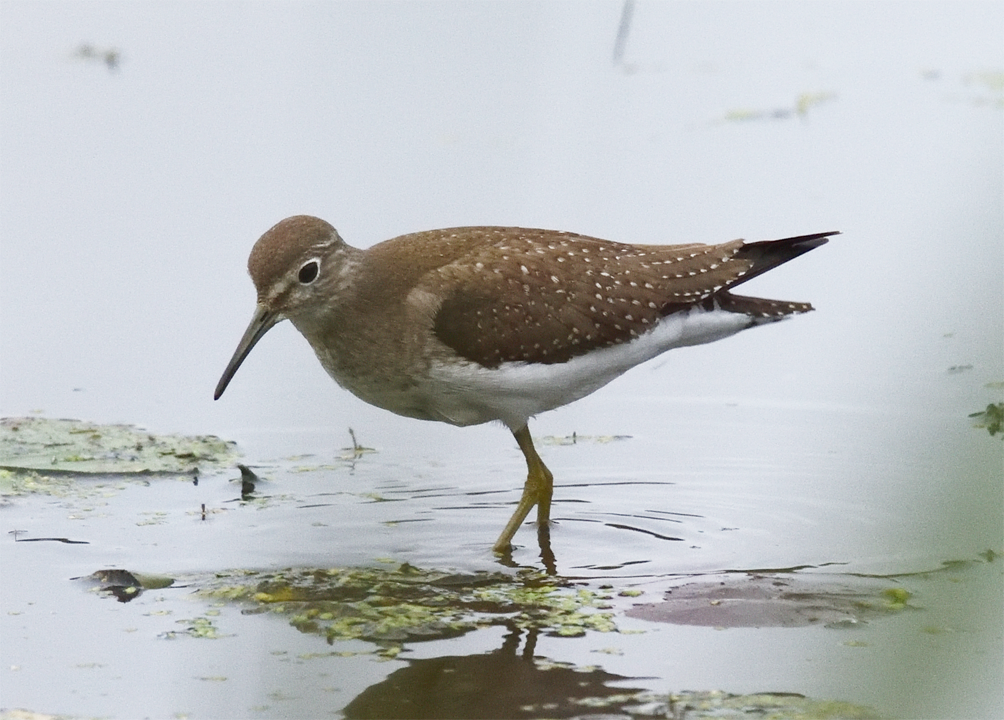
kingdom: Animalia
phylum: Chordata
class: Aves
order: Charadriiformes
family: Scolopacidae
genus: Tringa
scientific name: Tringa solitaria
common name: Solitary sandpiper
